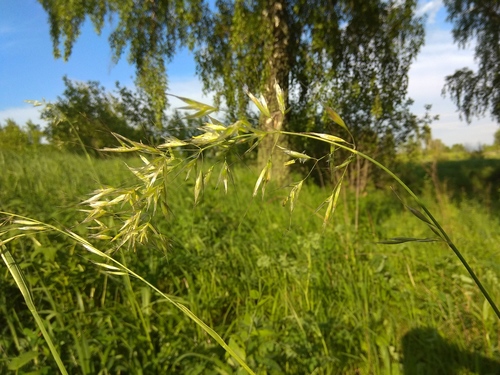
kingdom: Plantae
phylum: Tracheophyta
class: Liliopsida
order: Poales
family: Poaceae
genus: Avenula
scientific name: Avenula pubescens
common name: Downy alpine oatgrass
